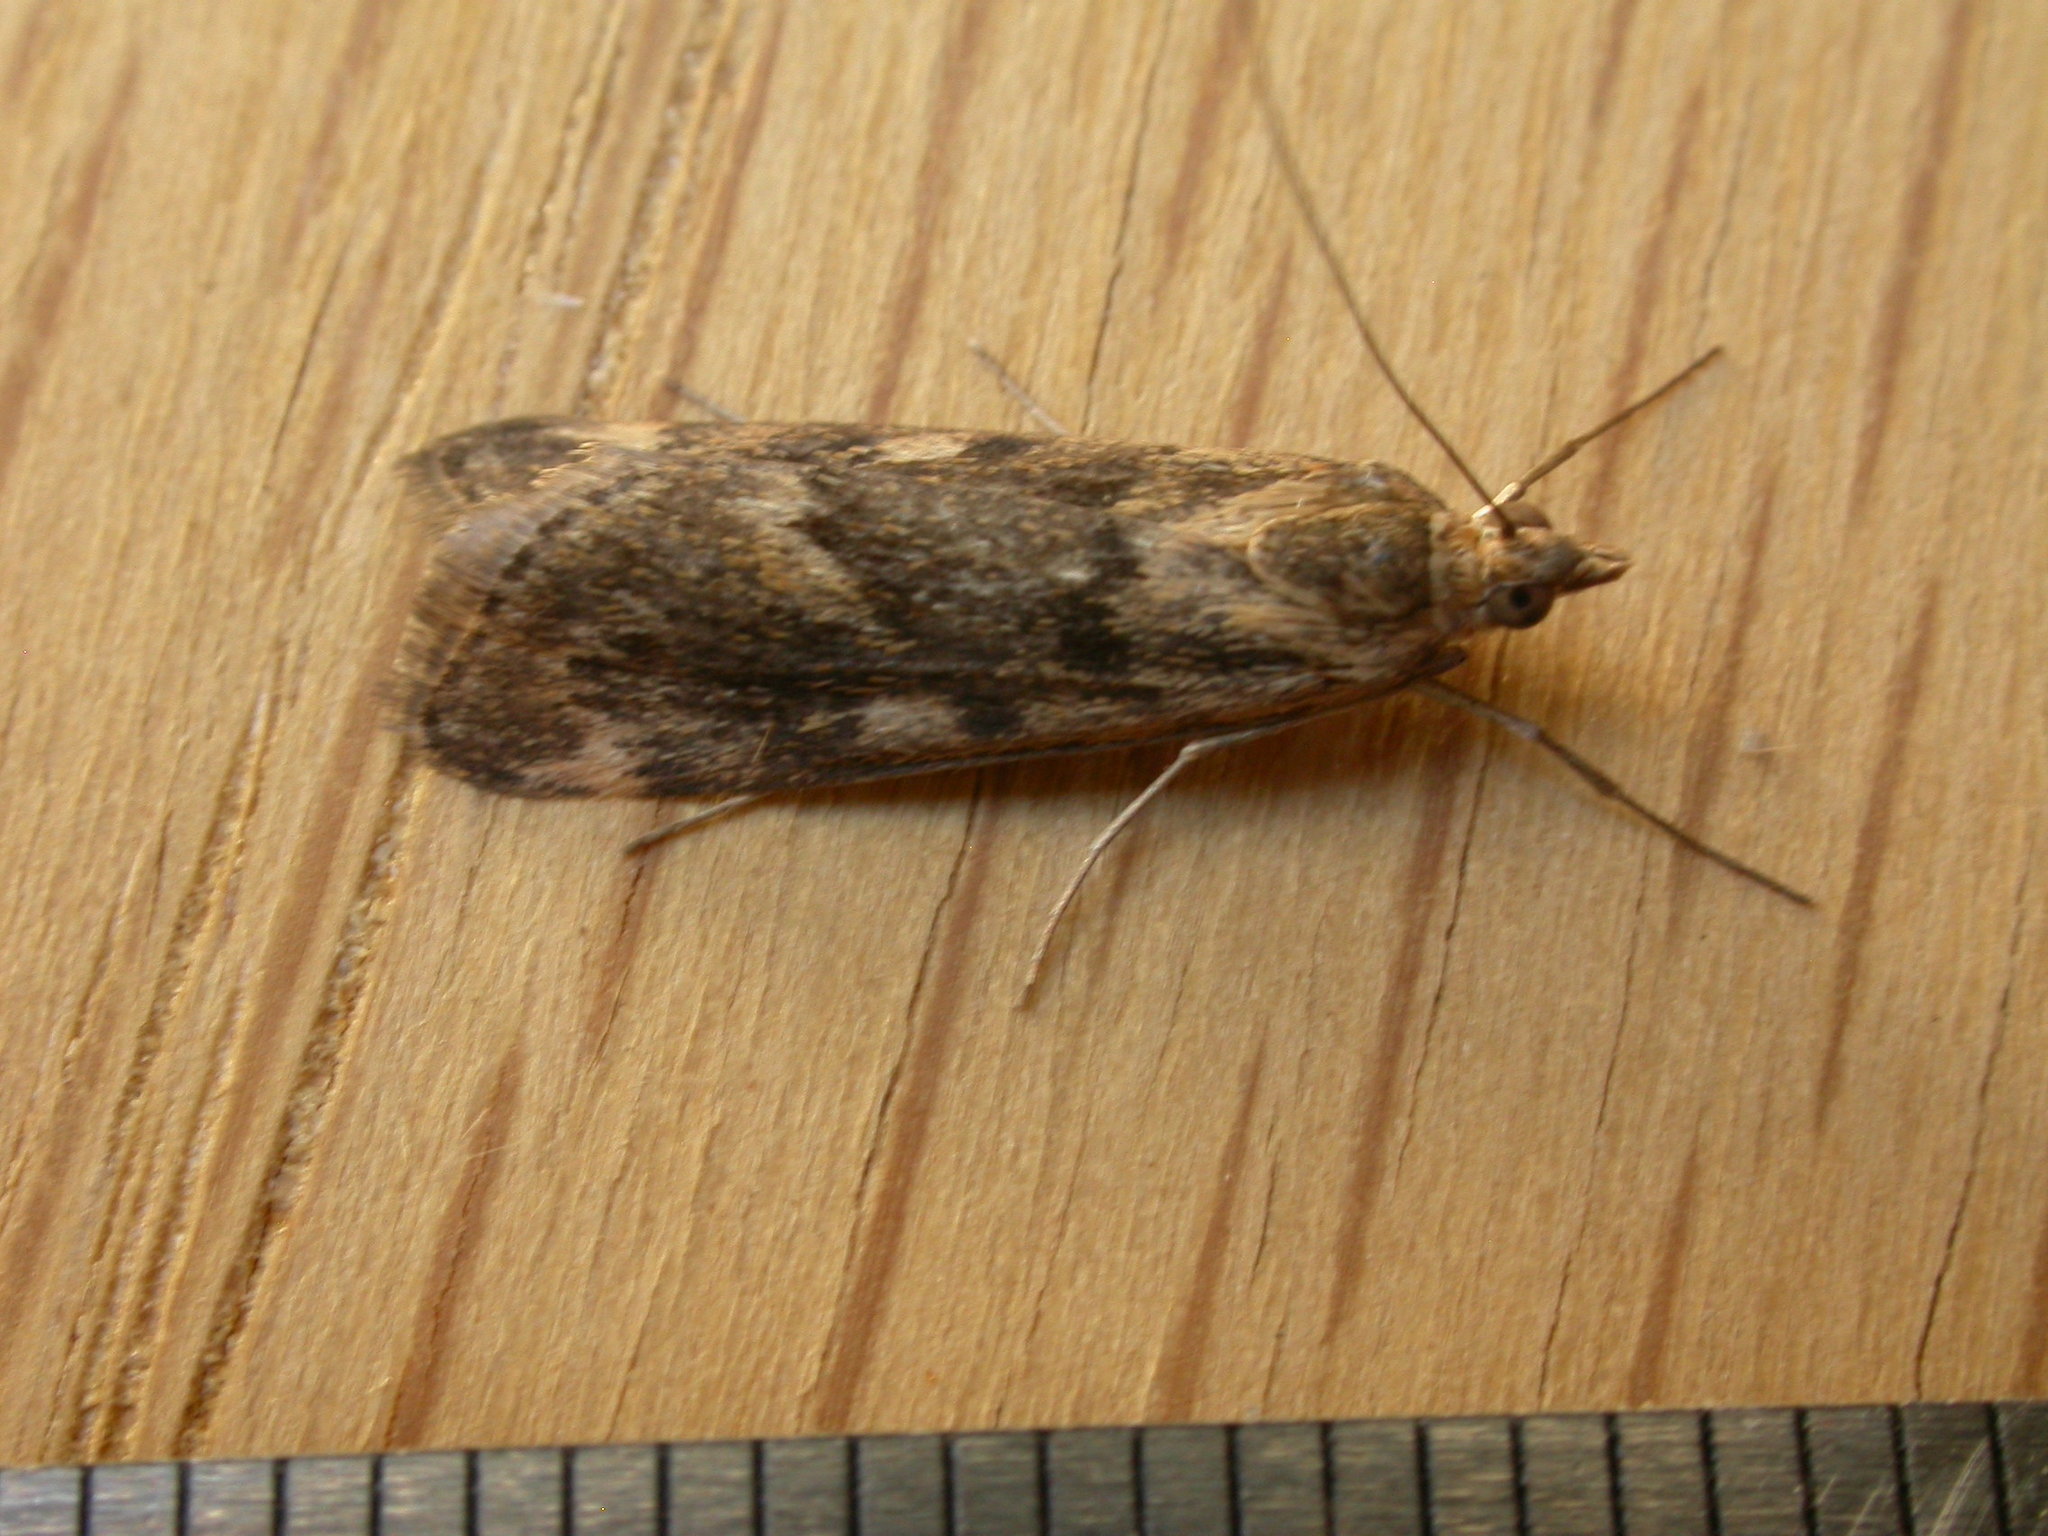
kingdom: Animalia
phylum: Arthropoda
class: Insecta
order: Lepidoptera
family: Crambidae
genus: Achyra
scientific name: Achyra affinitalis
